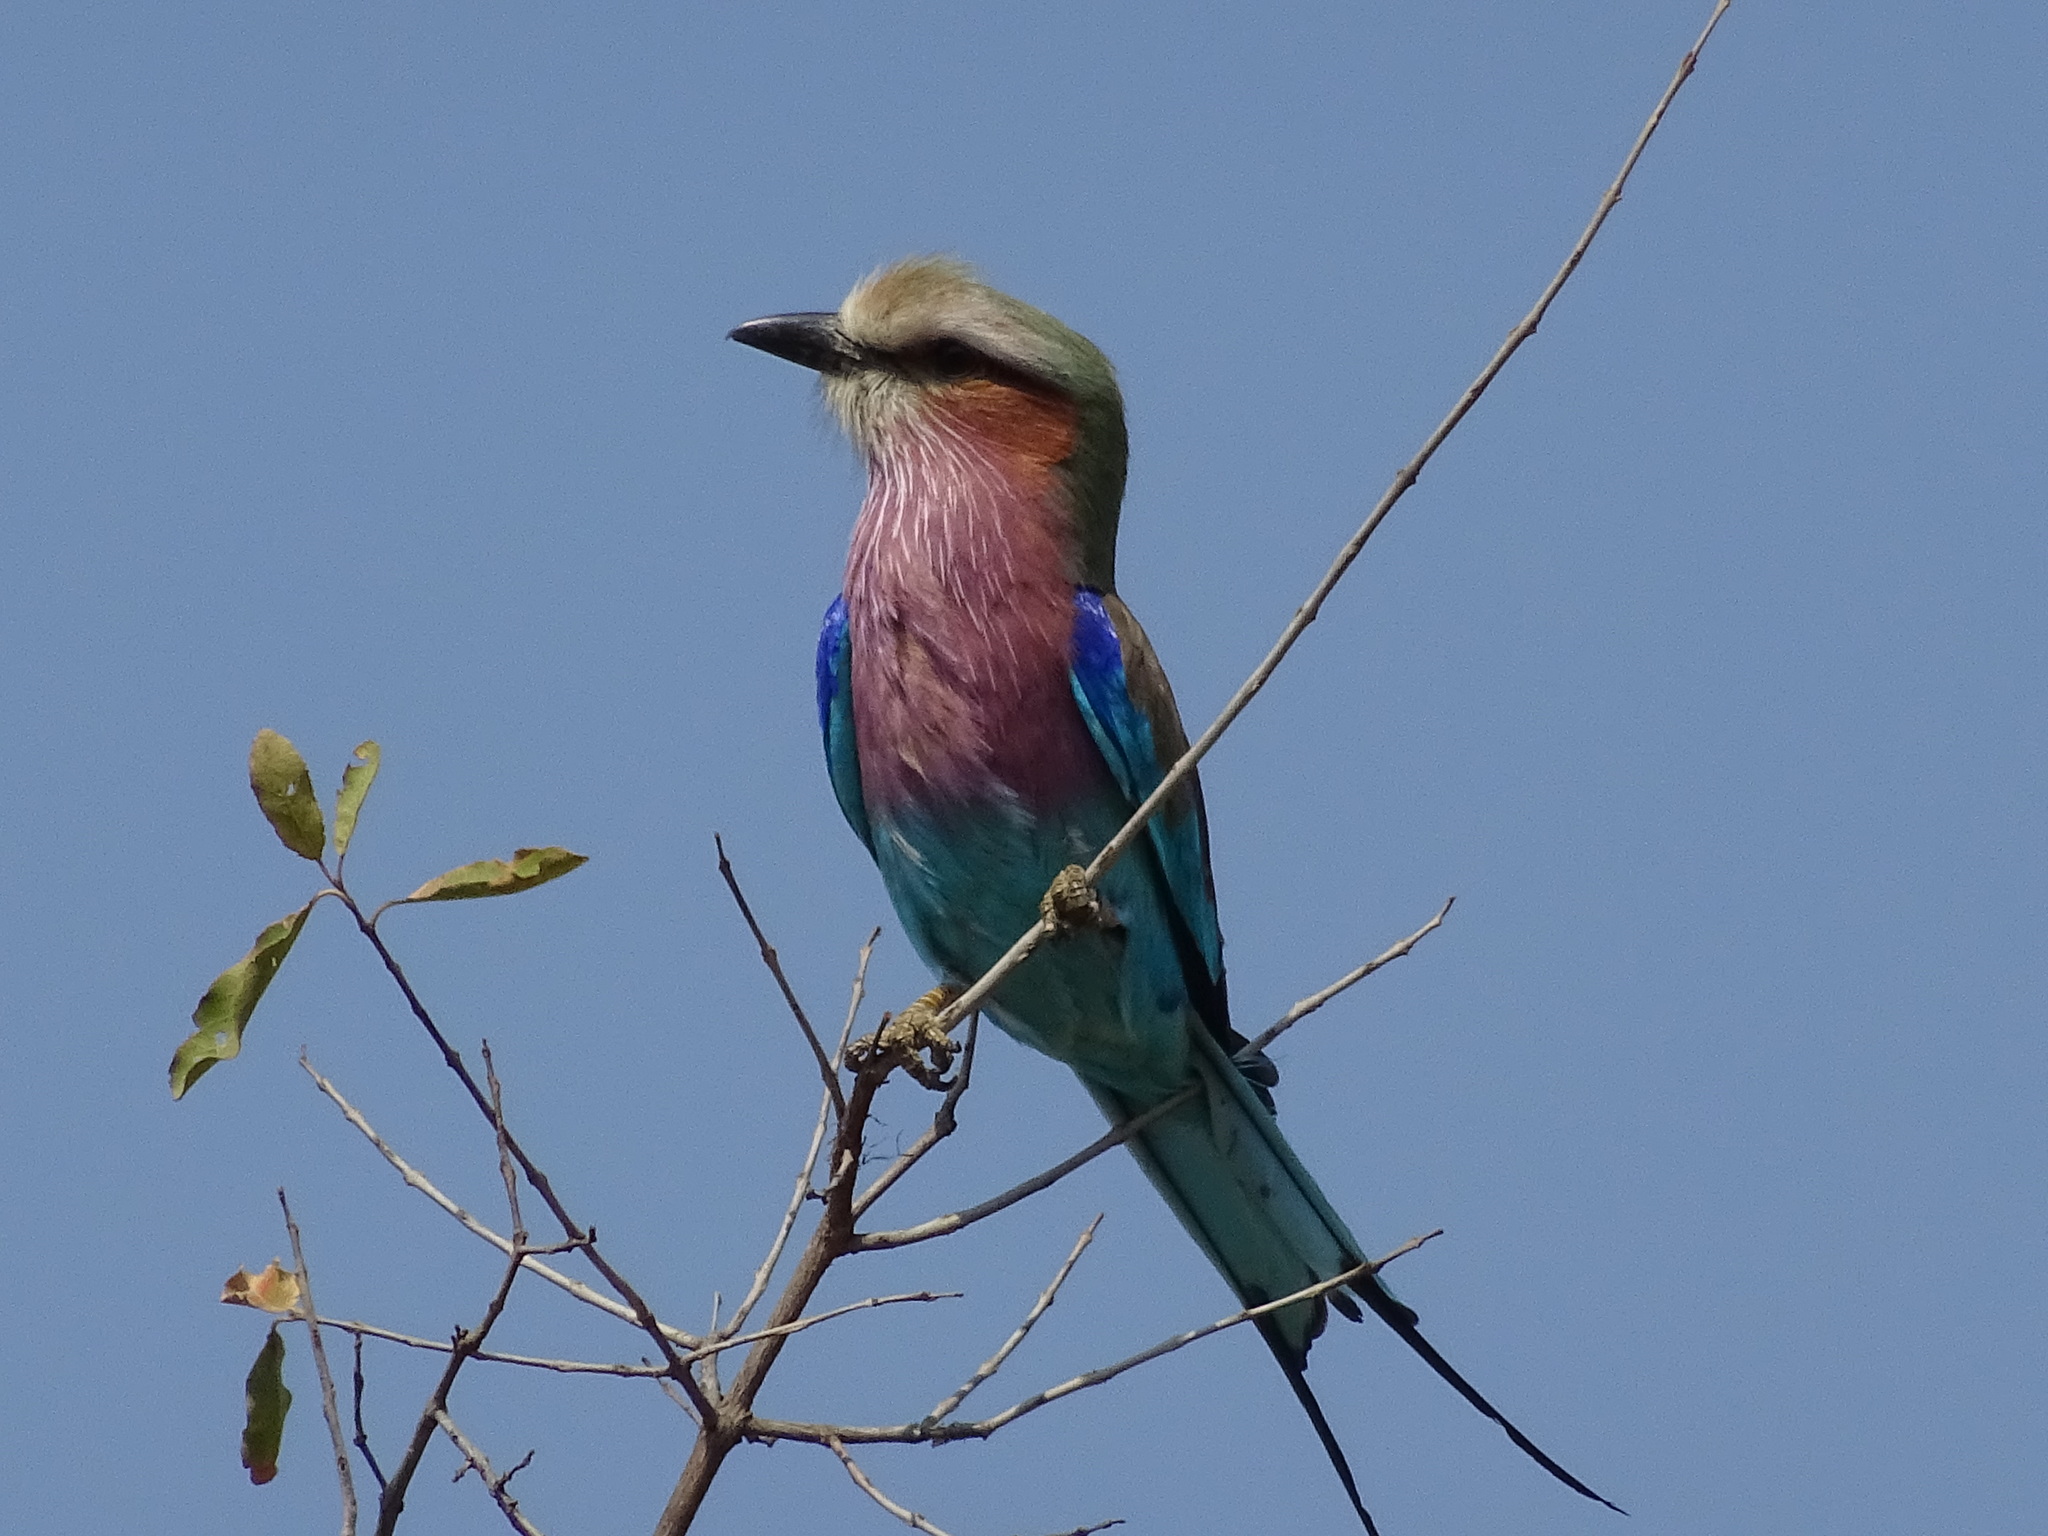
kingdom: Animalia
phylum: Chordata
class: Aves
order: Coraciiformes
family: Coraciidae
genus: Coracias
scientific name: Coracias caudatus
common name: Lilac-breasted roller
